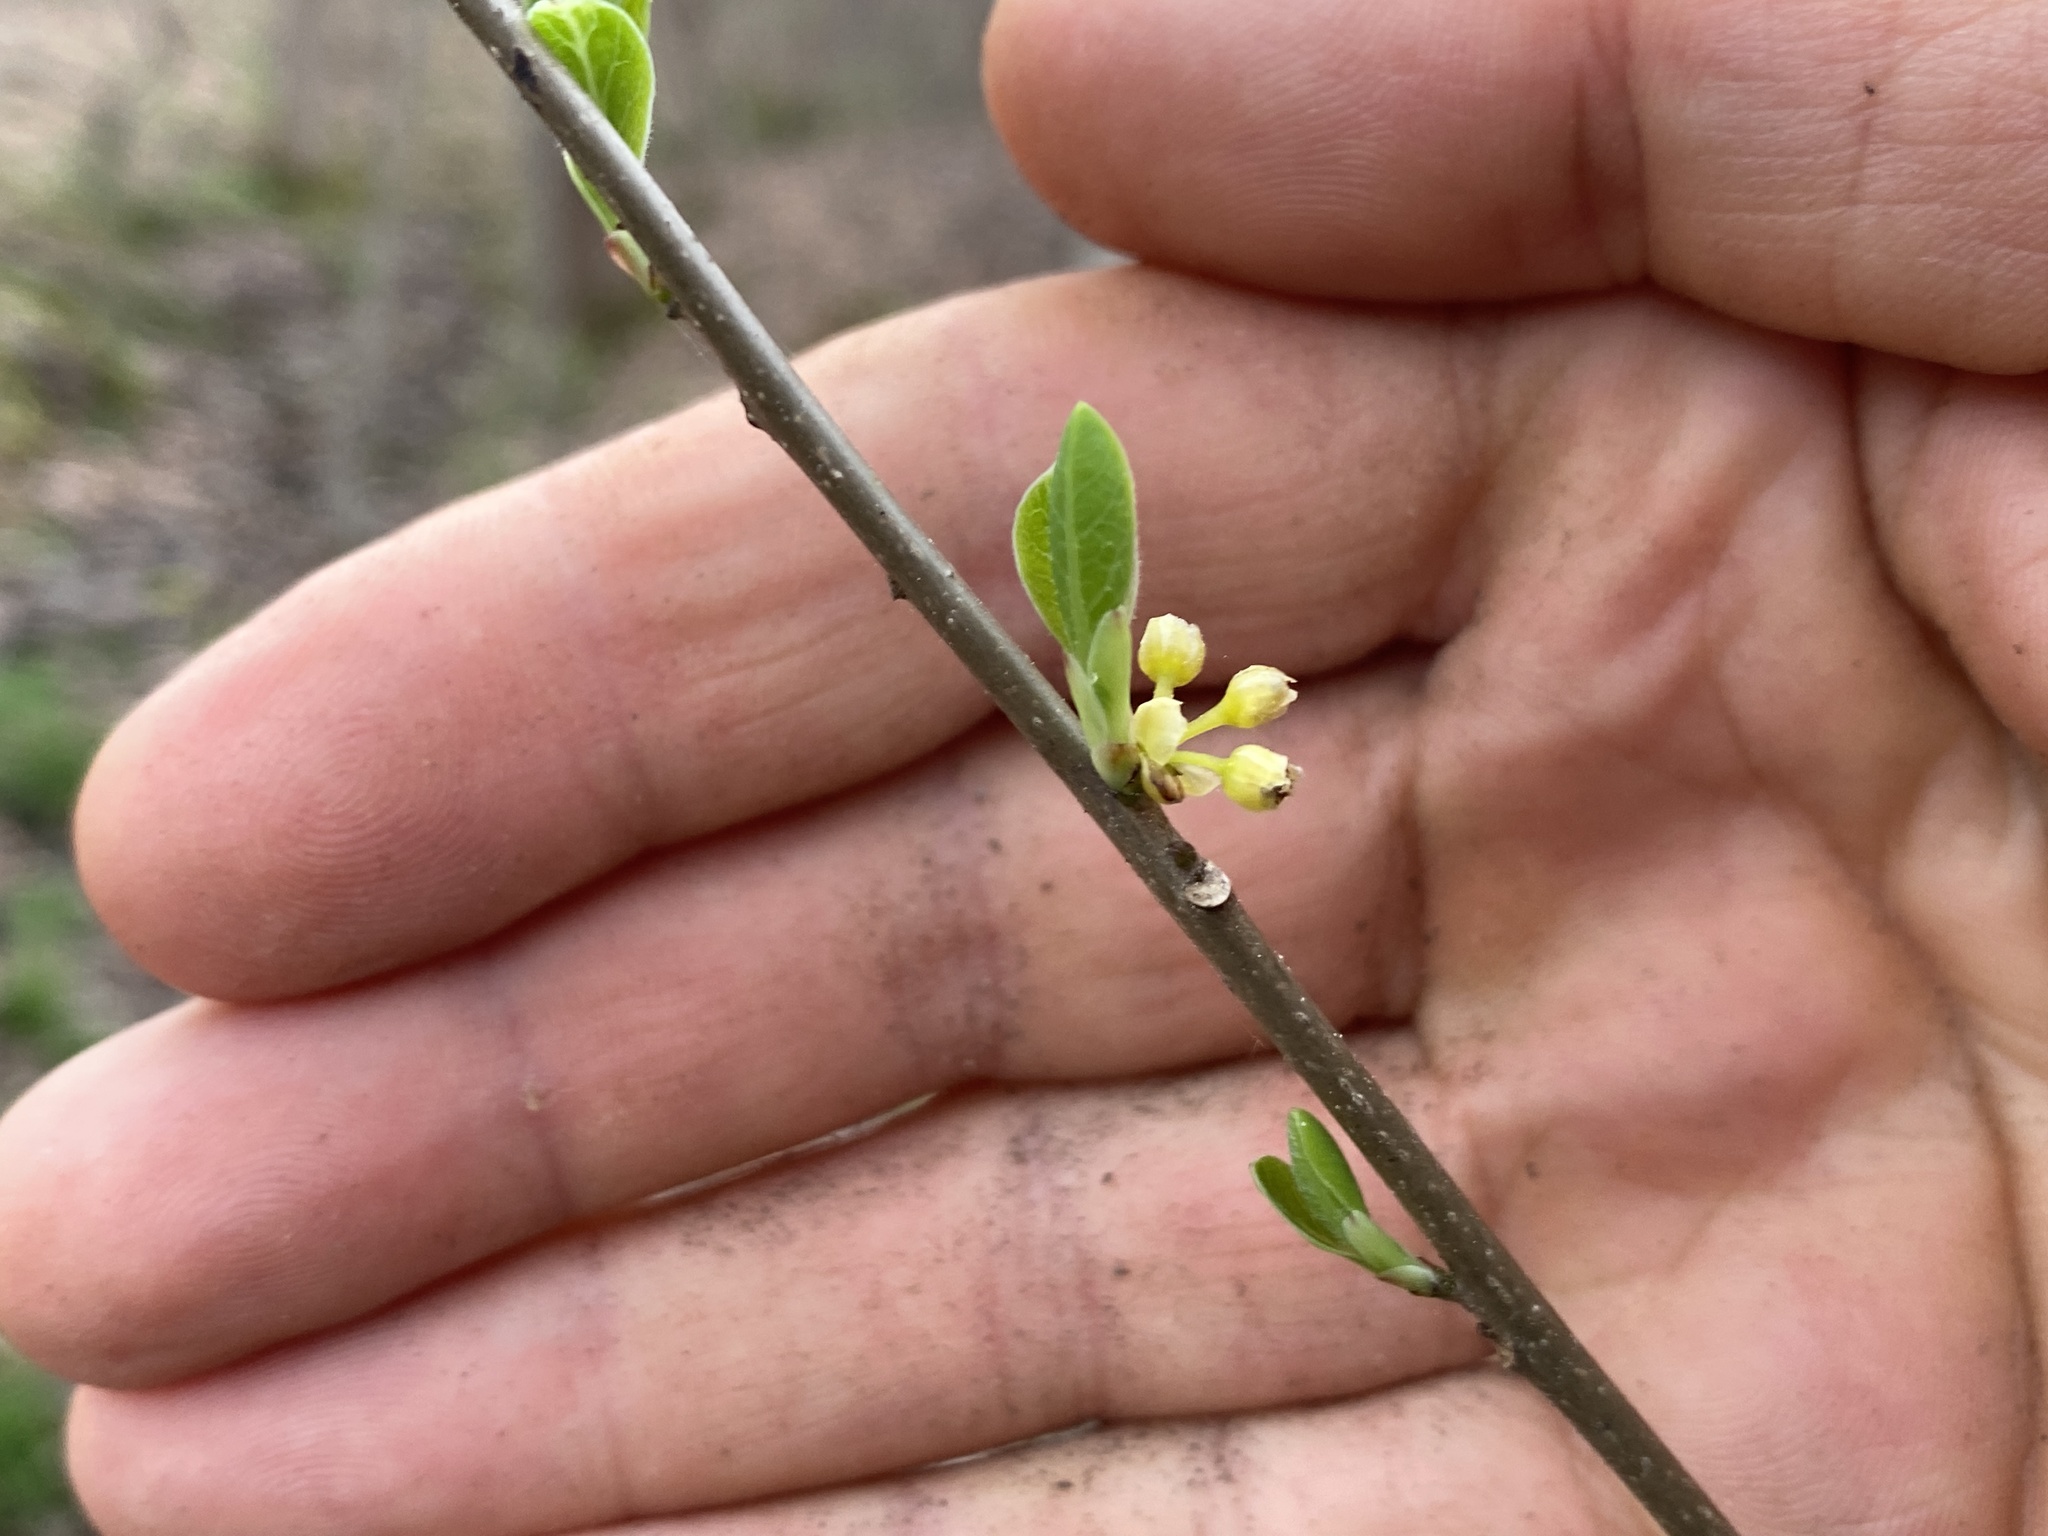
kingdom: Plantae
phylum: Tracheophyta
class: Magnoliopsida
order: Laurales
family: Lauraceae
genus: Lindera
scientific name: Lindera benzoin
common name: Spicebush
